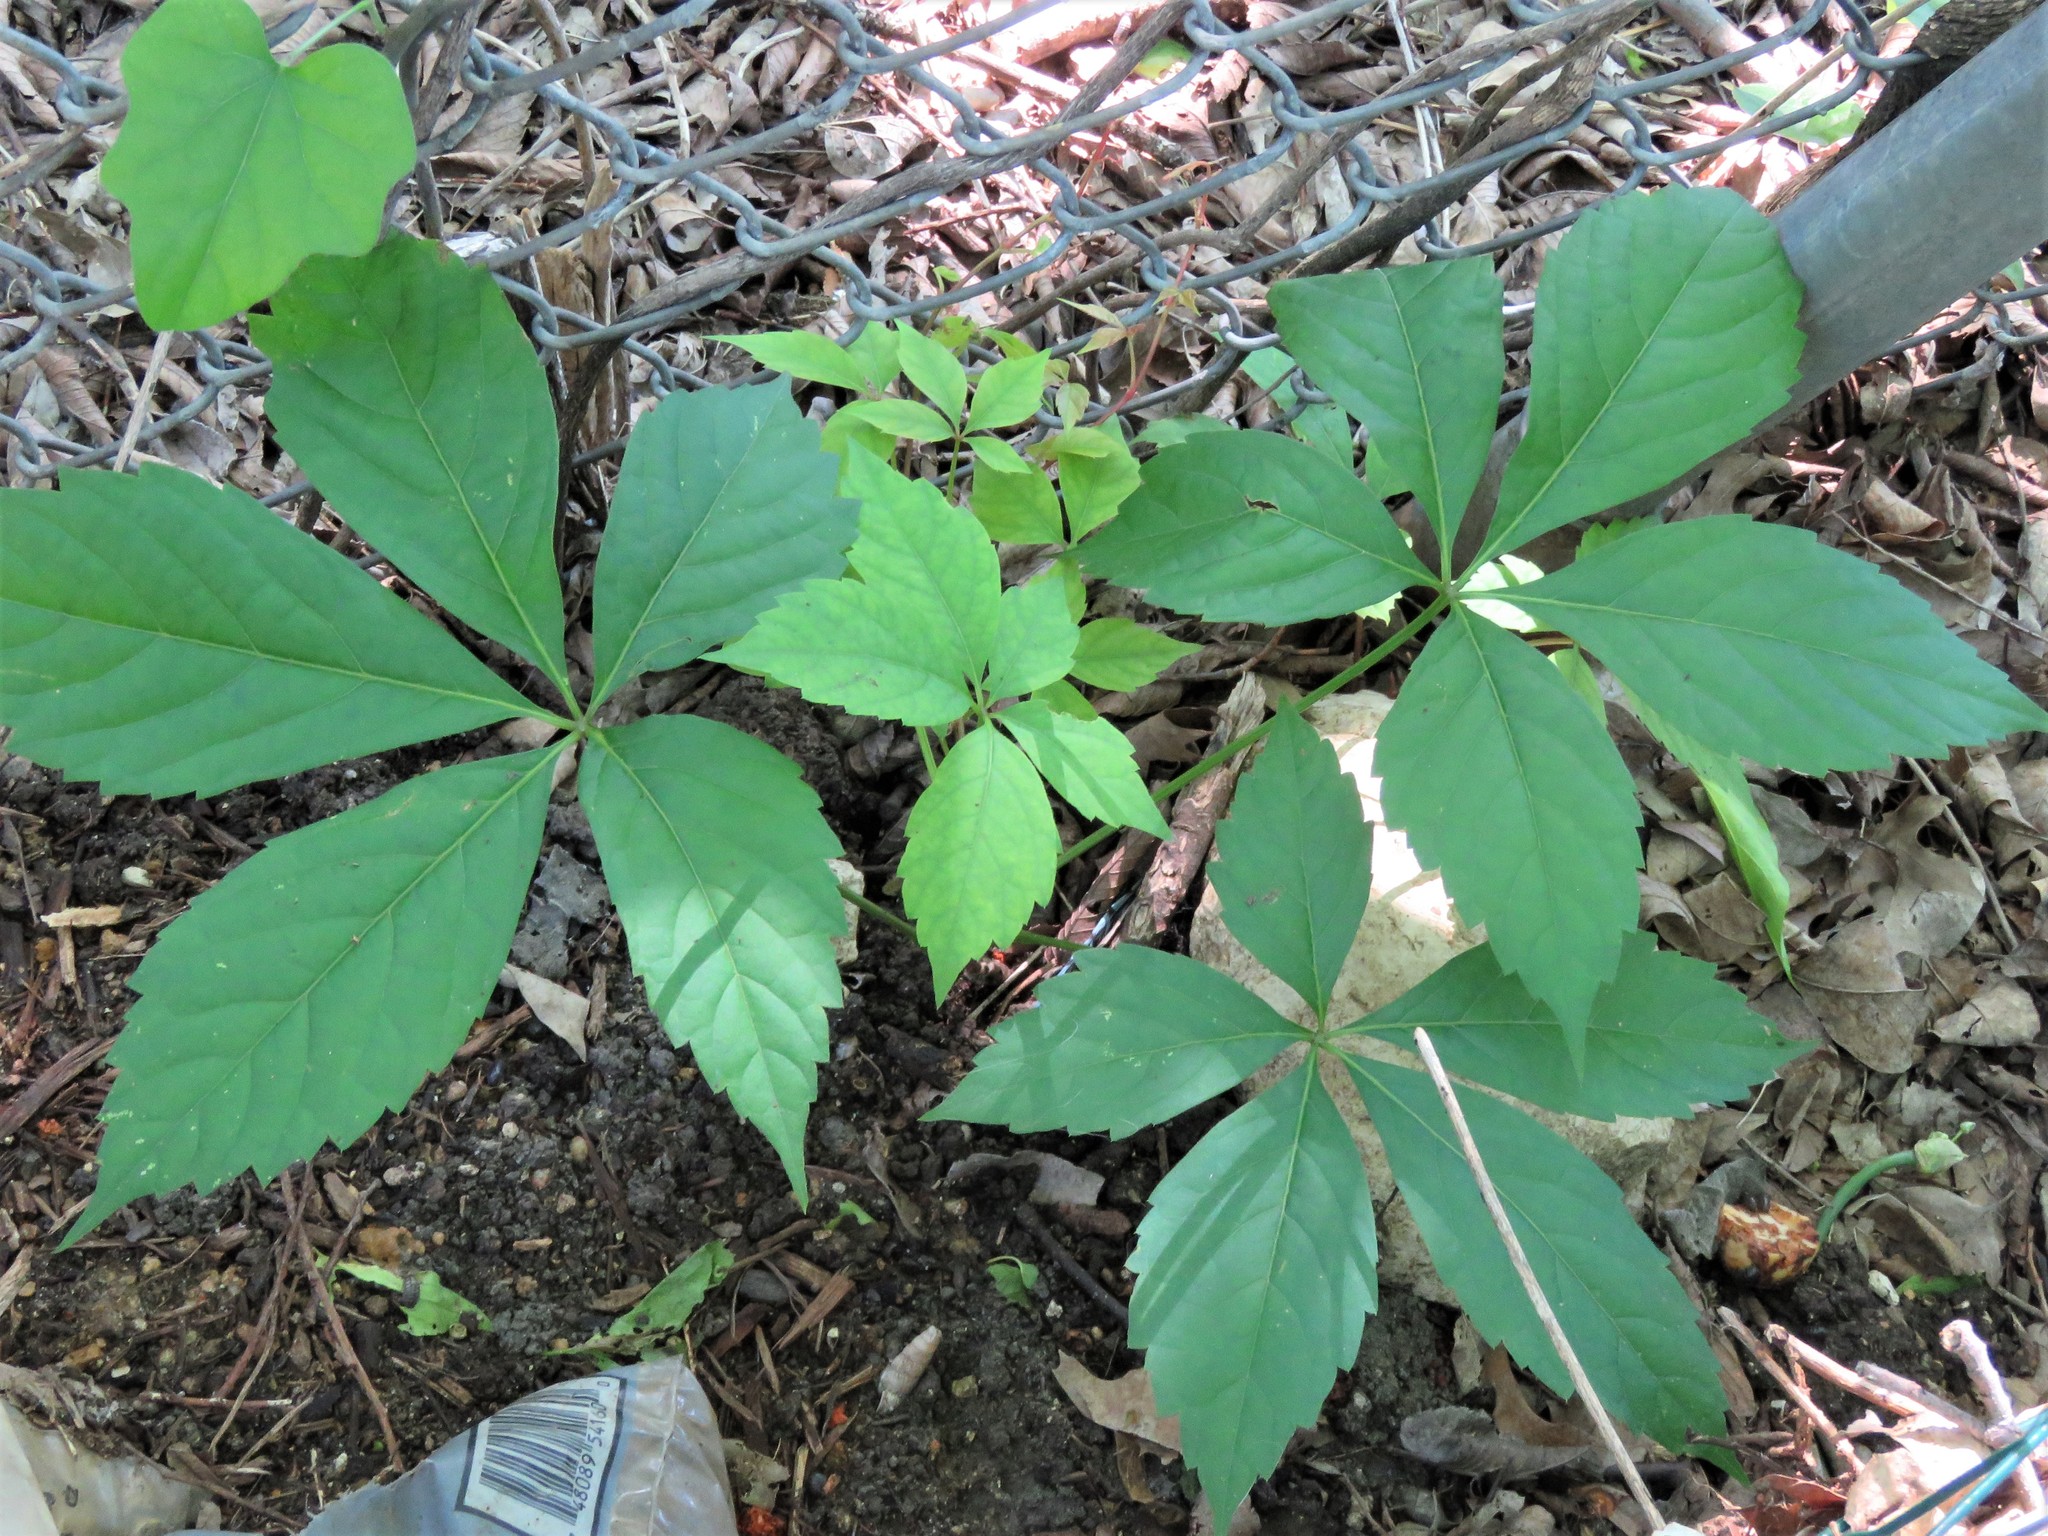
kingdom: Plantae
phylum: Tracheophyta
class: Magnoliopsida
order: Vitales
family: Vitaceae
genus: Parthenocissus
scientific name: Parthenocissus quinquefolia
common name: Virginia-creeper
